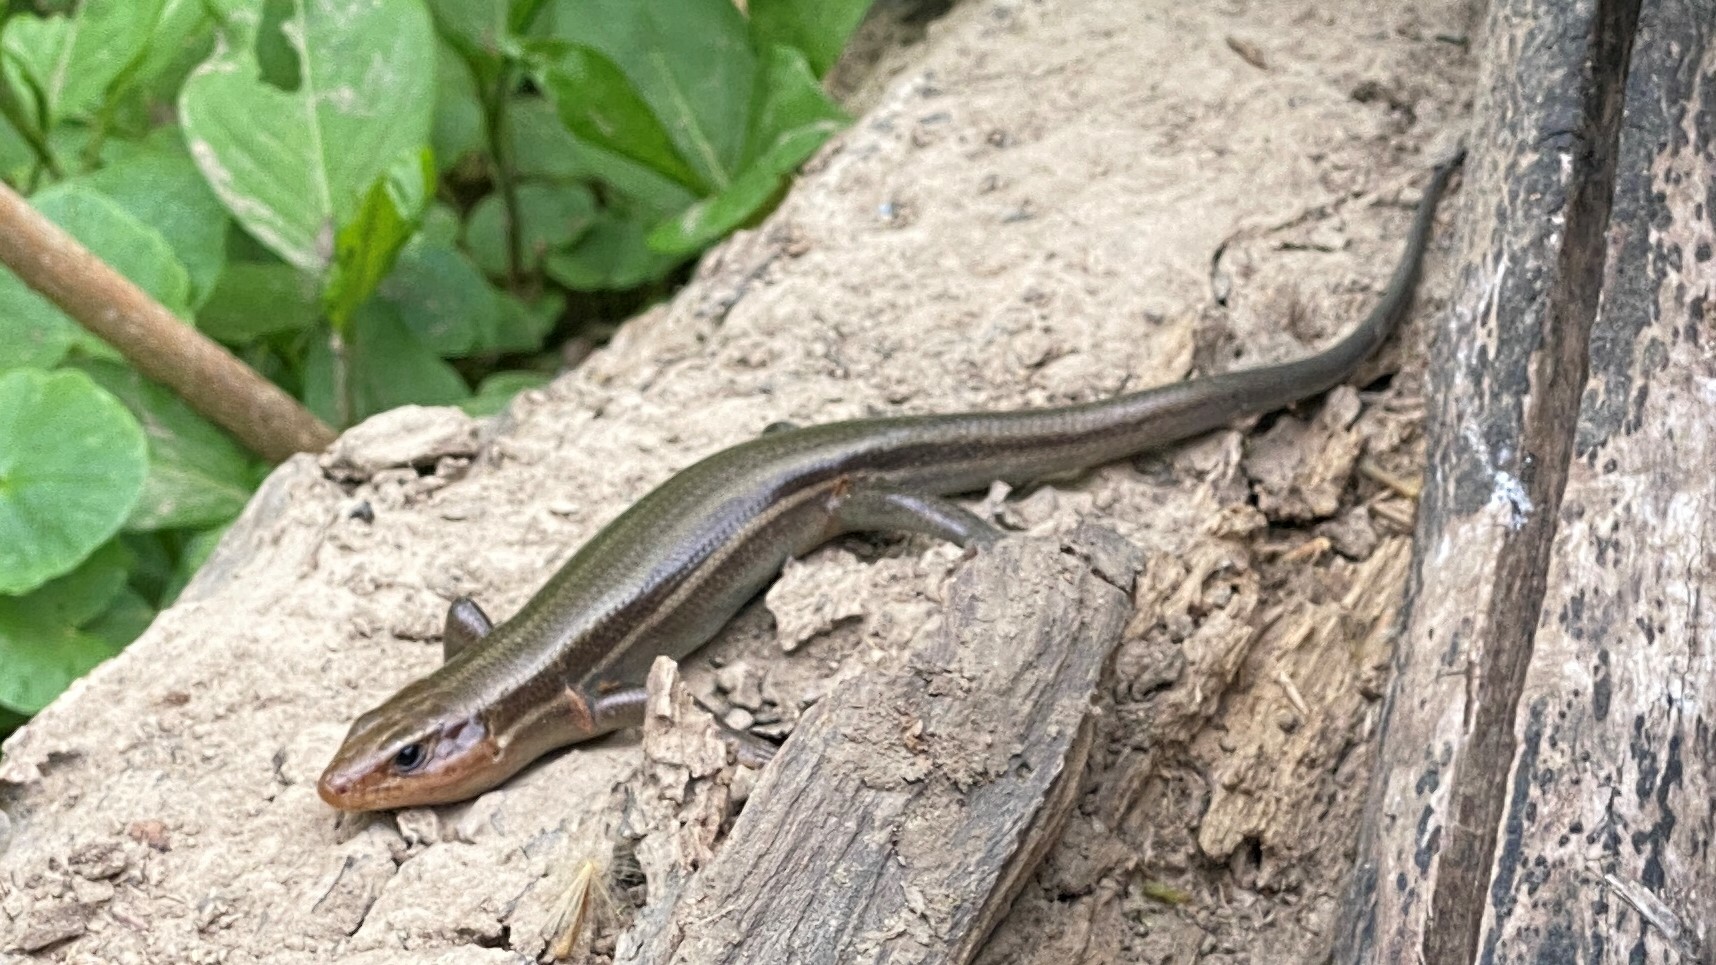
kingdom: Animalia
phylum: Chordata
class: Squamata
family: Scincidae
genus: Plestiodon
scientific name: Plestiodon laticeps
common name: Broadhead skink
